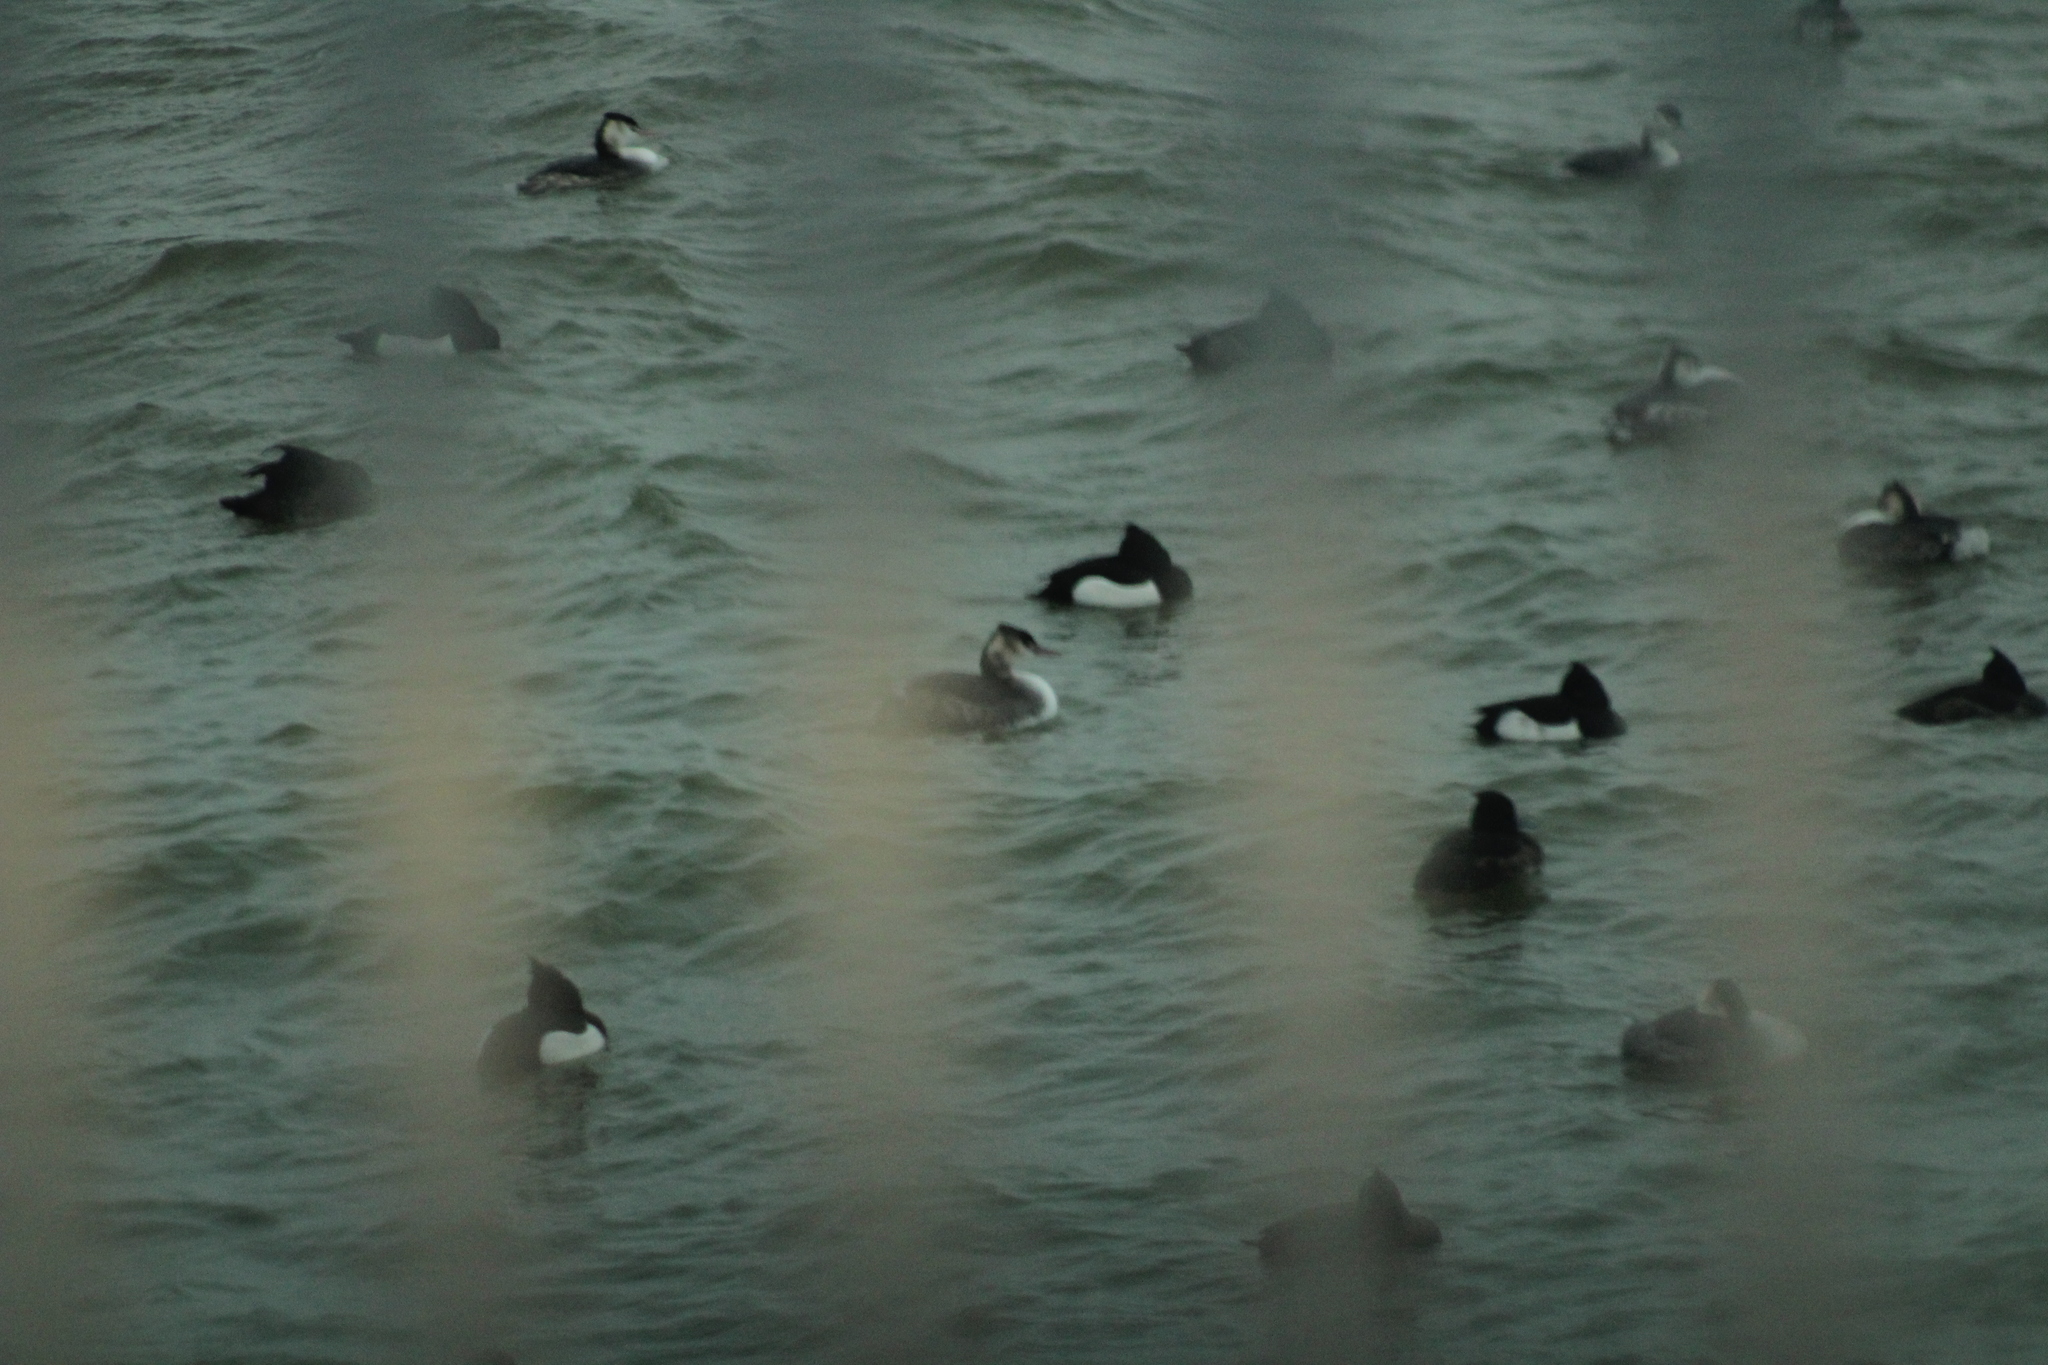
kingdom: Animalia
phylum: Chordata
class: Aves
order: Podicipediformes
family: Podicipedidae
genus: Podiceps
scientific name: Podiceps cristatus
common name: Great crested grebe
